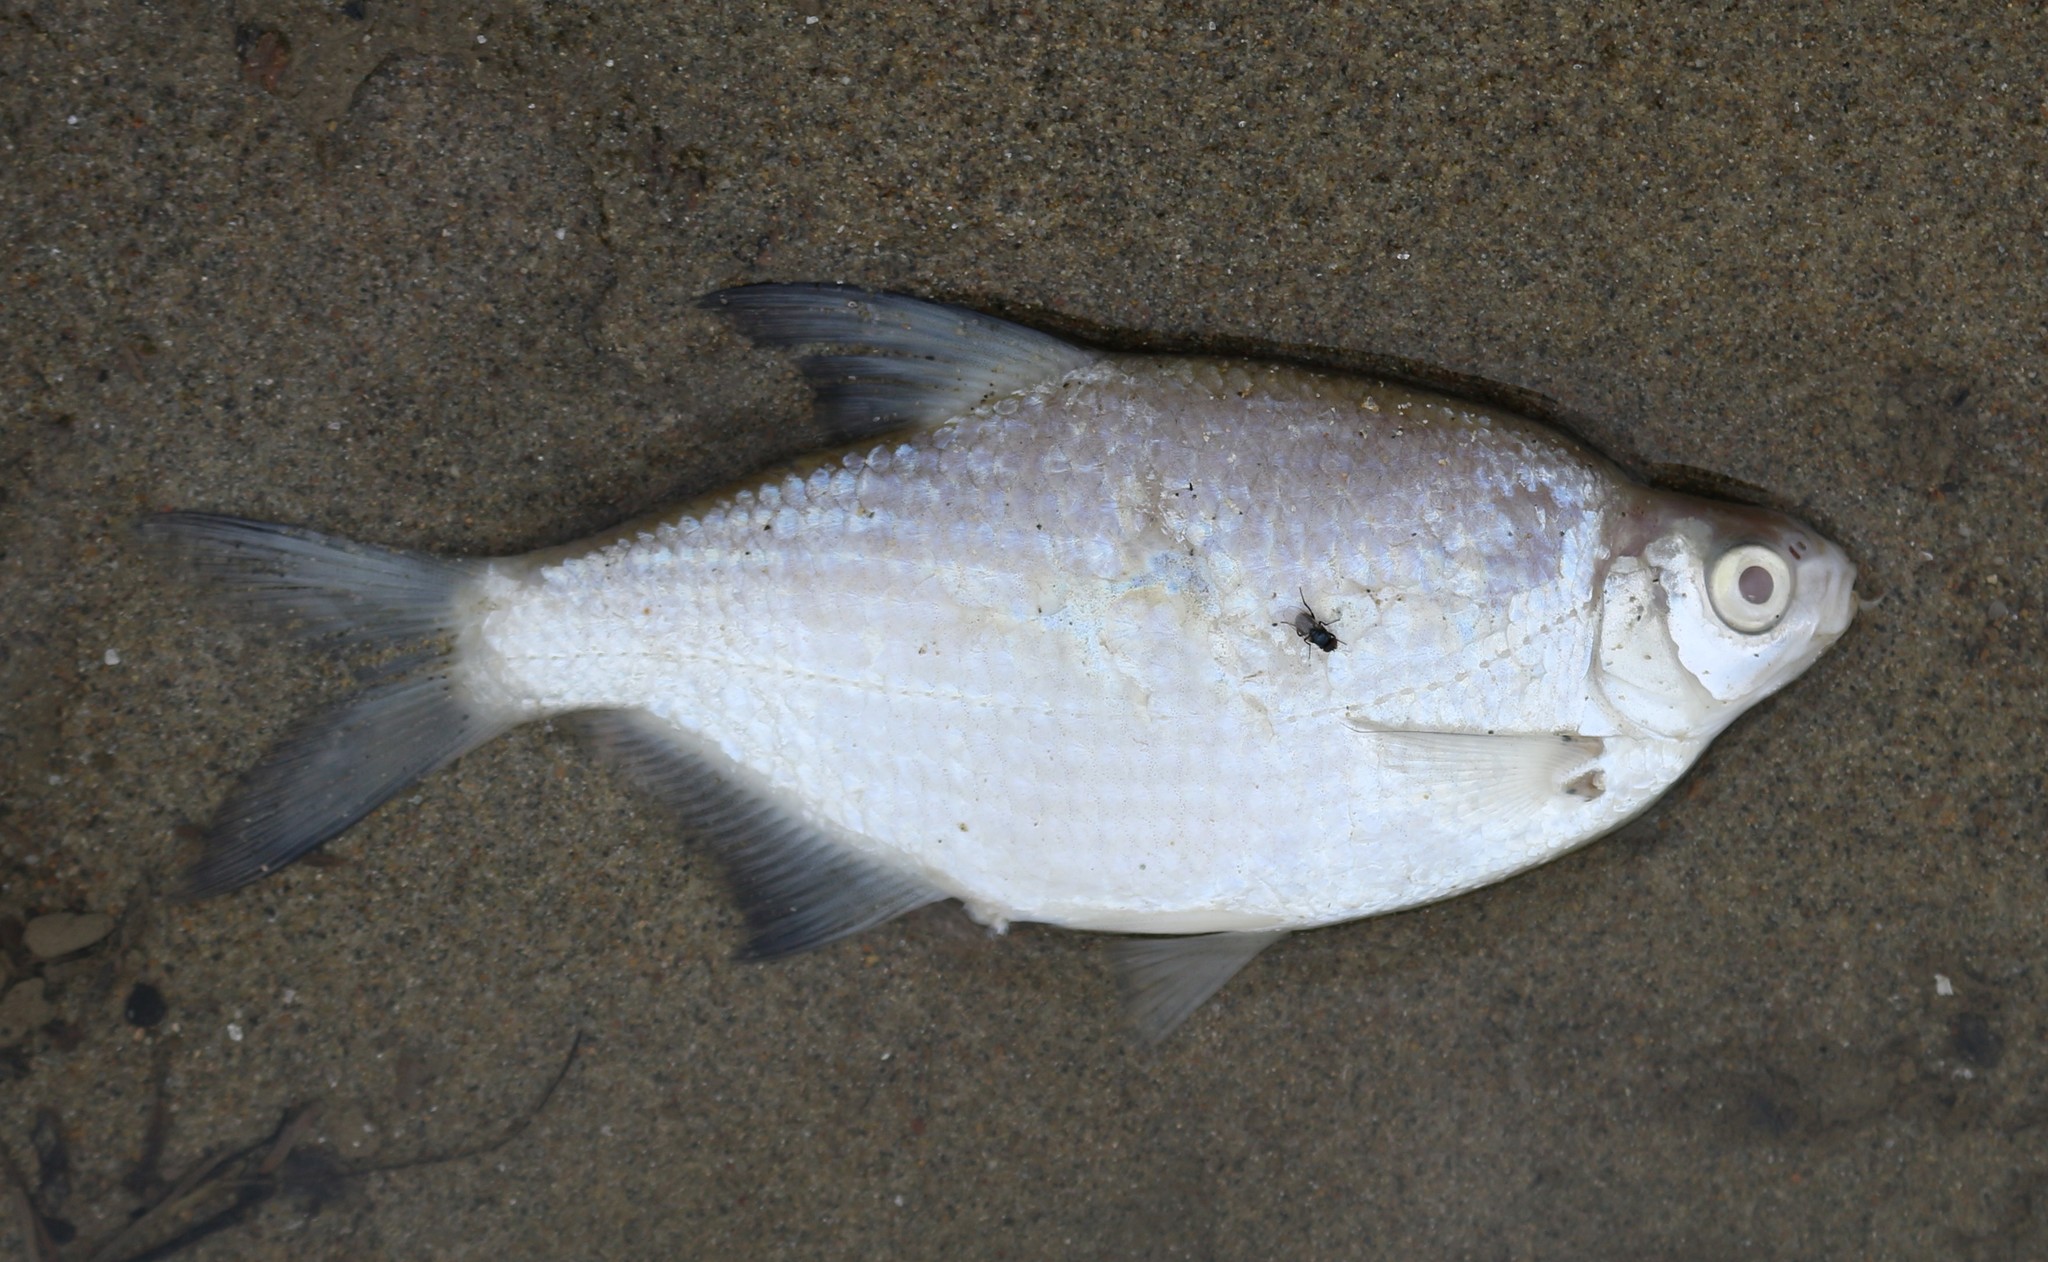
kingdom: Animalia
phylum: Chordata
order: Cypriniformes
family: Cyprinidae
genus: Blicca
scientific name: Blicca bjoerkna
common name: White bream
